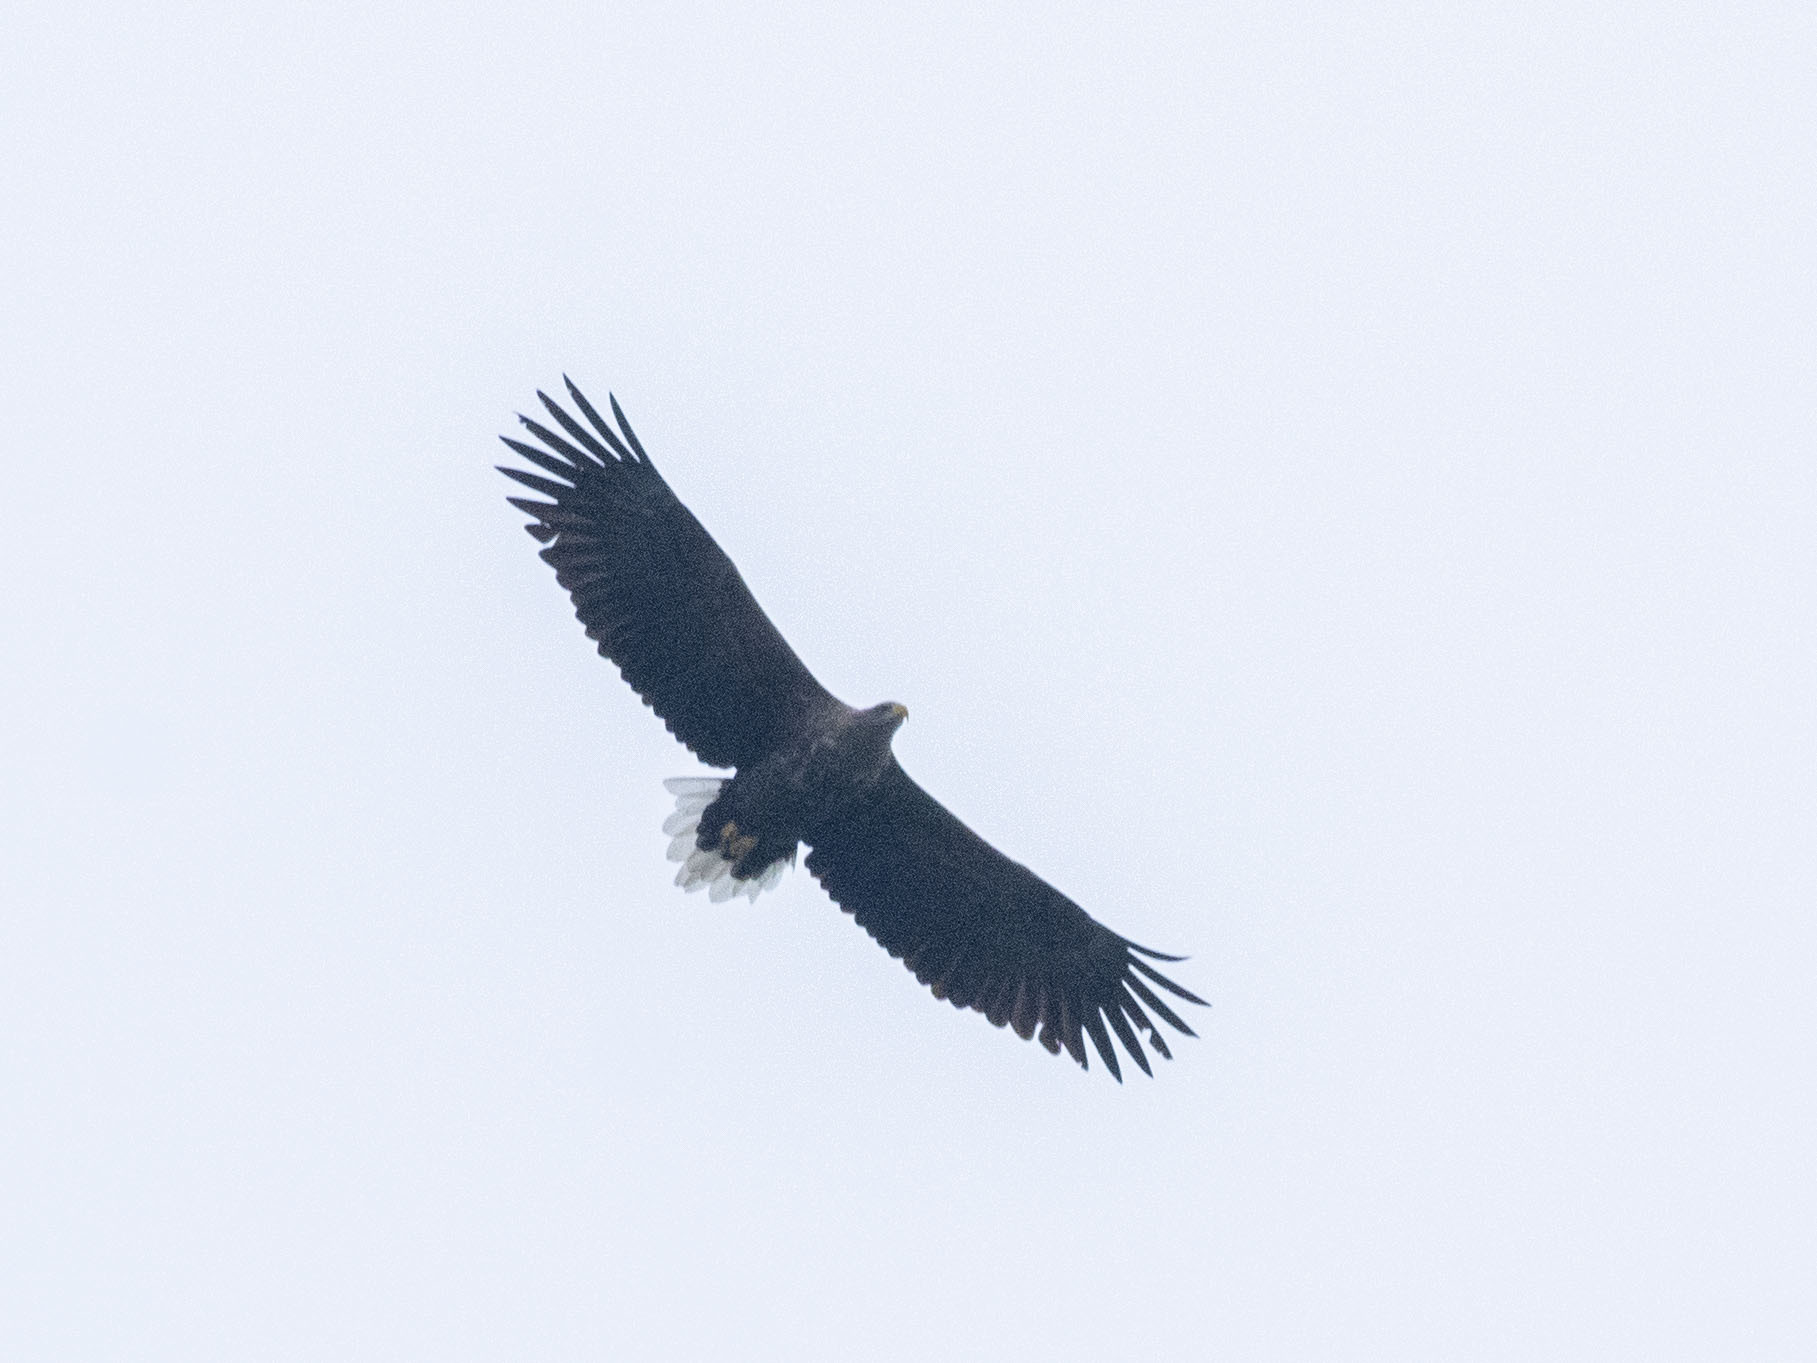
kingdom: Animalia
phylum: Chordata
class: Aves
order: Accipitriformes
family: Accipitridae
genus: Haliaeetus
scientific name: Haliaeetus albicilla
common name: White-tailed eagle
